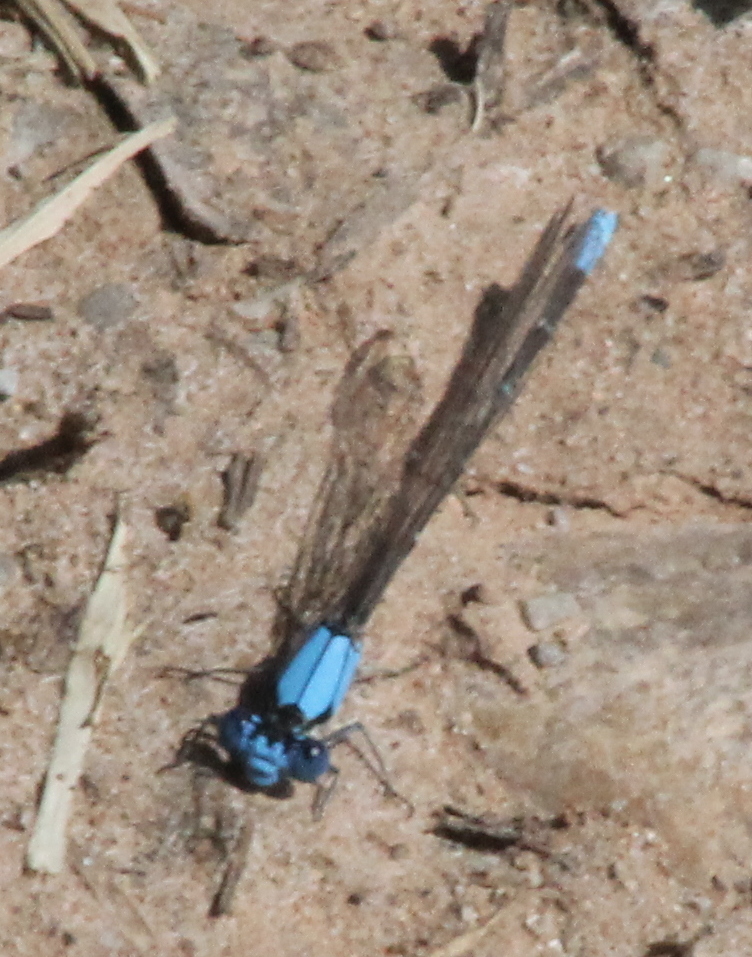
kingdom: Animalia
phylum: Arthropoda
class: Insecta
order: Odonata
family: Coenagrionidae
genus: Argia
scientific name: Argia apicalis
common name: Blue-fronted dancer
